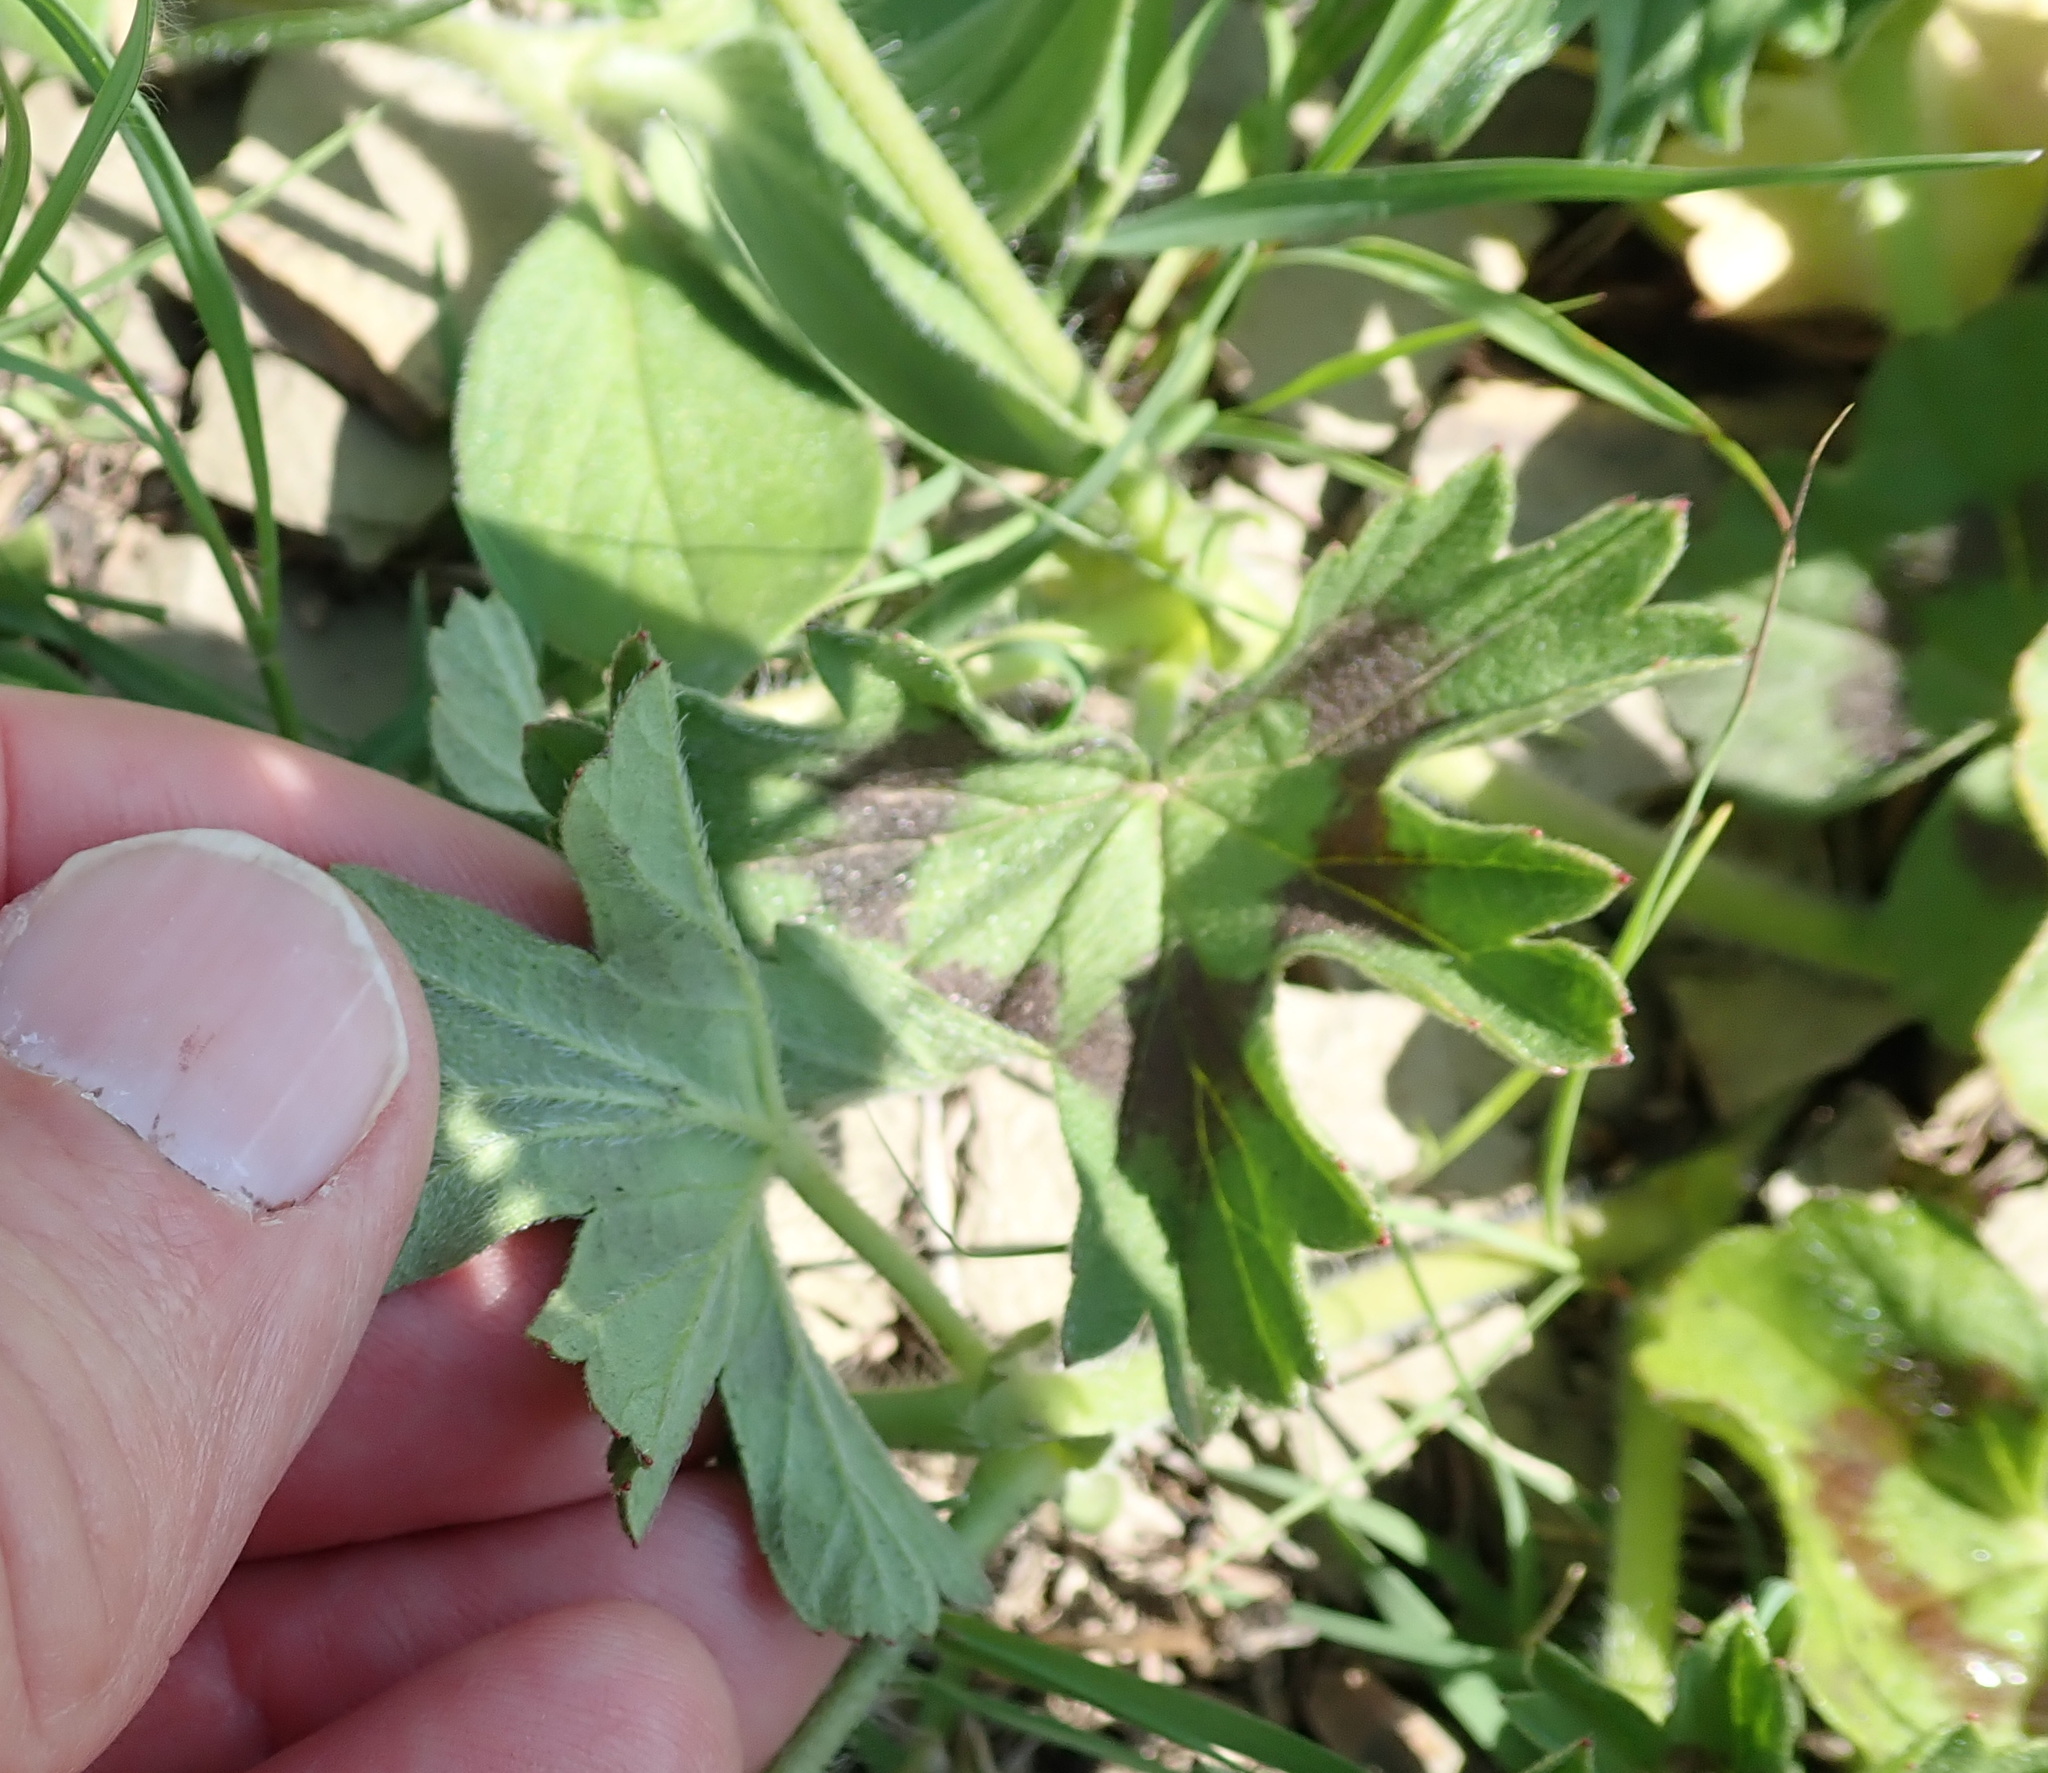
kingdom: Plantae
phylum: Tracheophyta
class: Magnoliopsida
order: Geraniales
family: Geraniaceae
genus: Pelargonium
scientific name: Pelargonium ranunculophyllum
